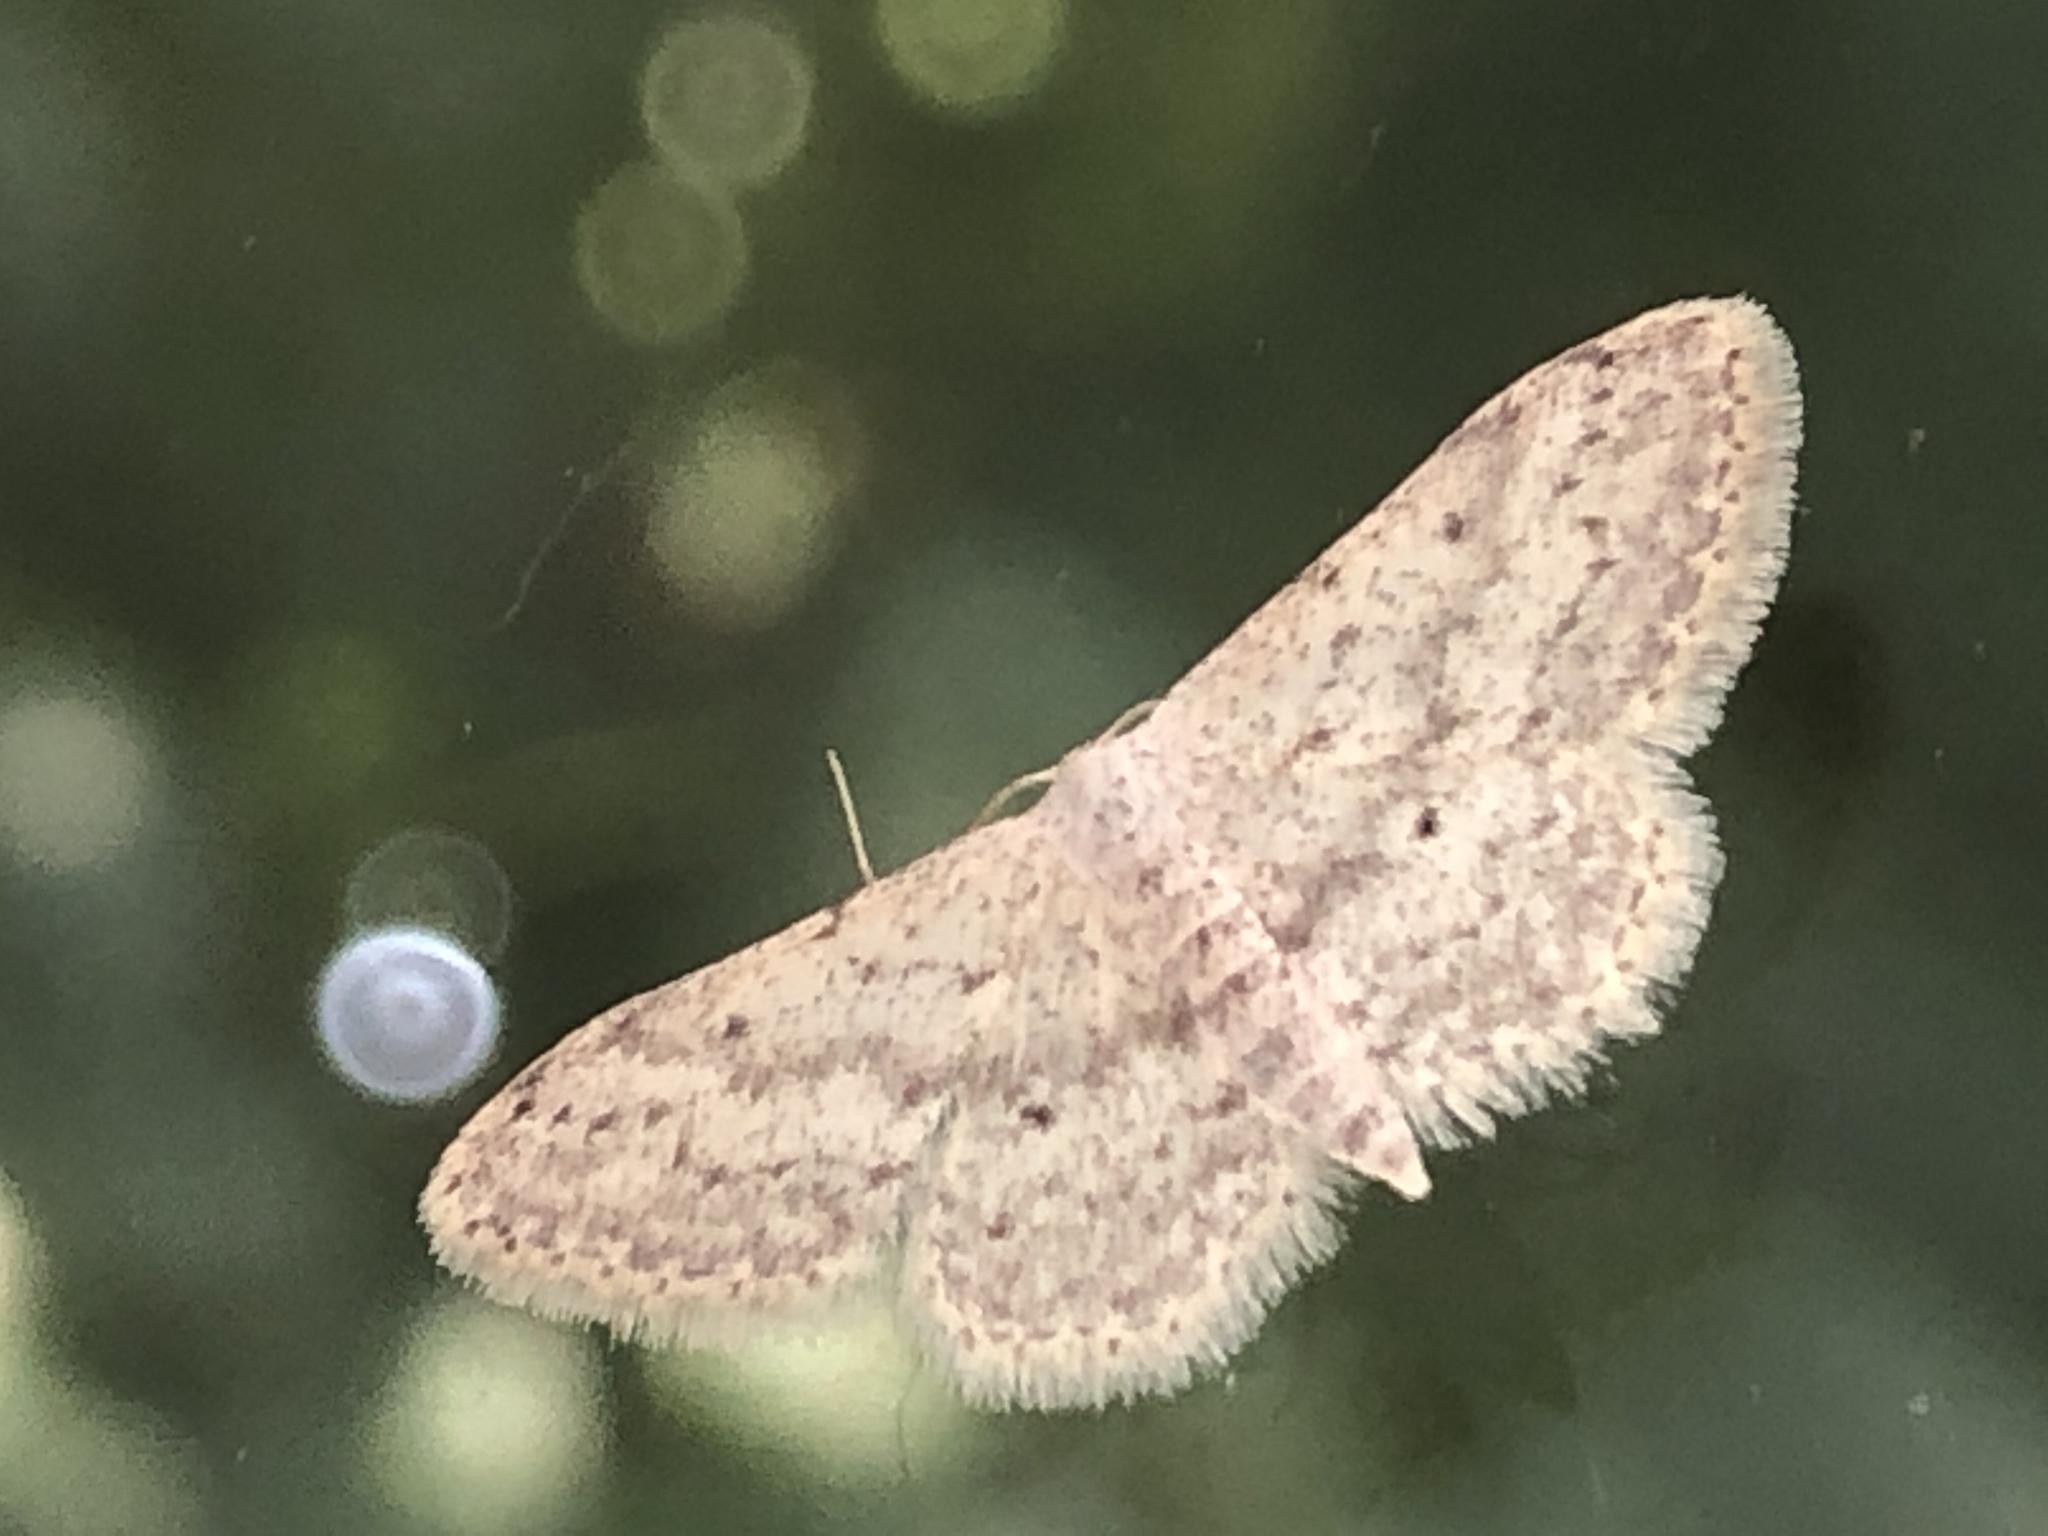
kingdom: Animalia
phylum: Arthropoda
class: Insecta
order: Lepidoptera
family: Geometridae
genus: Idaea
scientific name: Idaea seriata
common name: Small dusty wave
